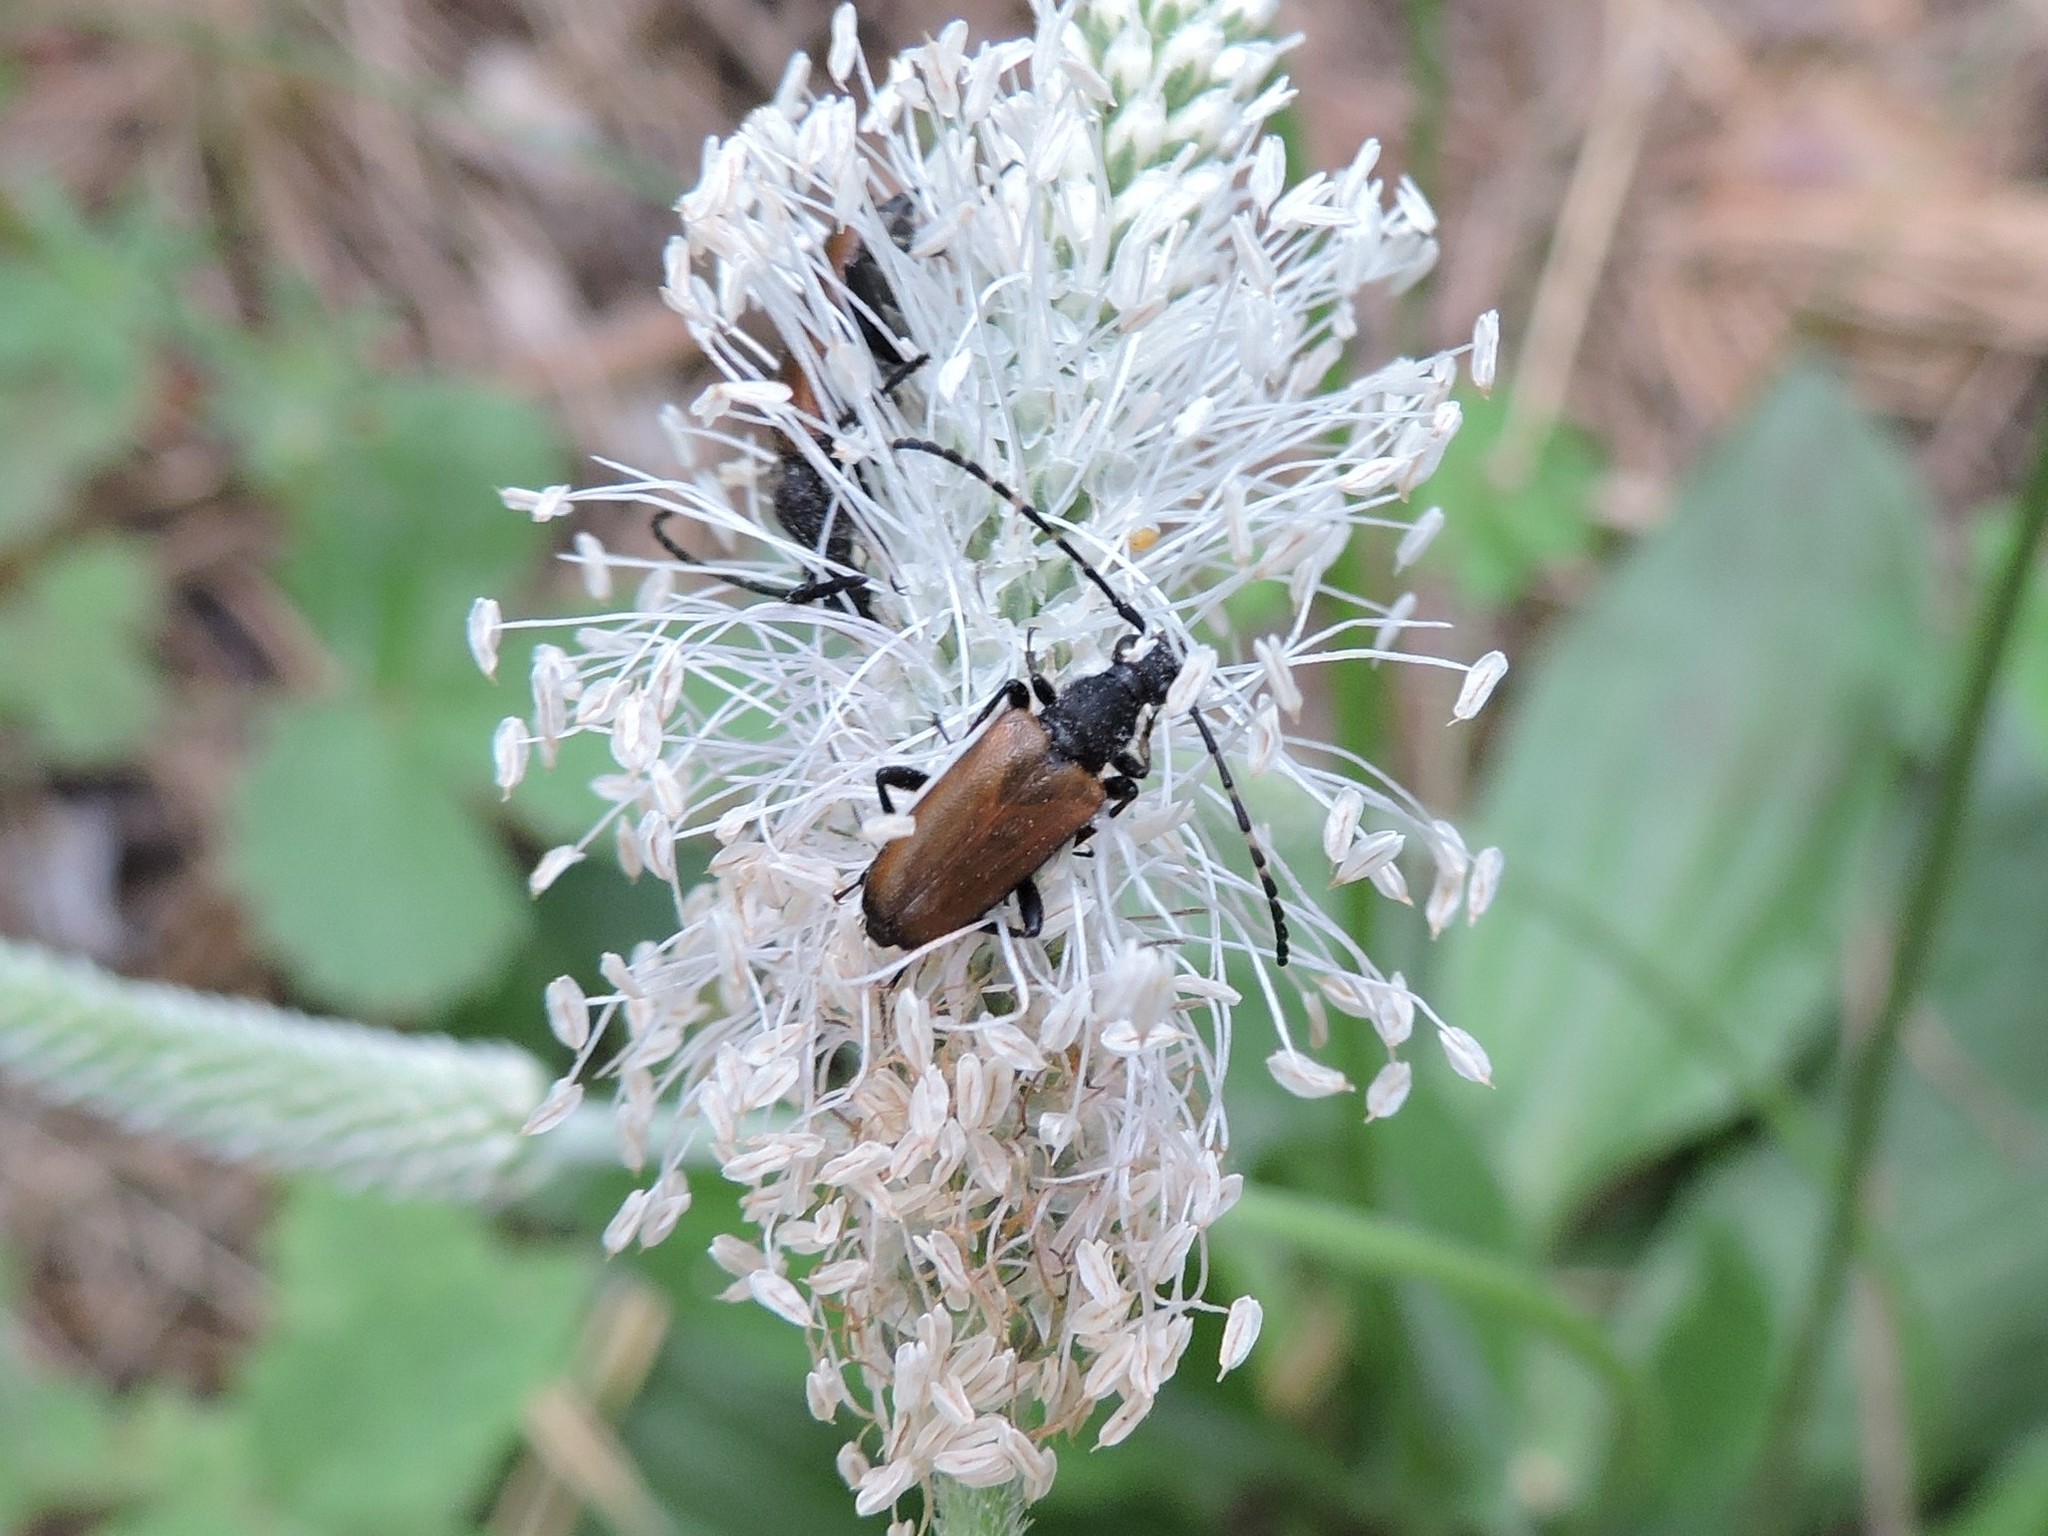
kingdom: Animalia
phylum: Arthropoda
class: Insecta
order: Coleoptera
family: Cerambycidae
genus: Paracorymbia
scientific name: Paracorymbia maculicornis
